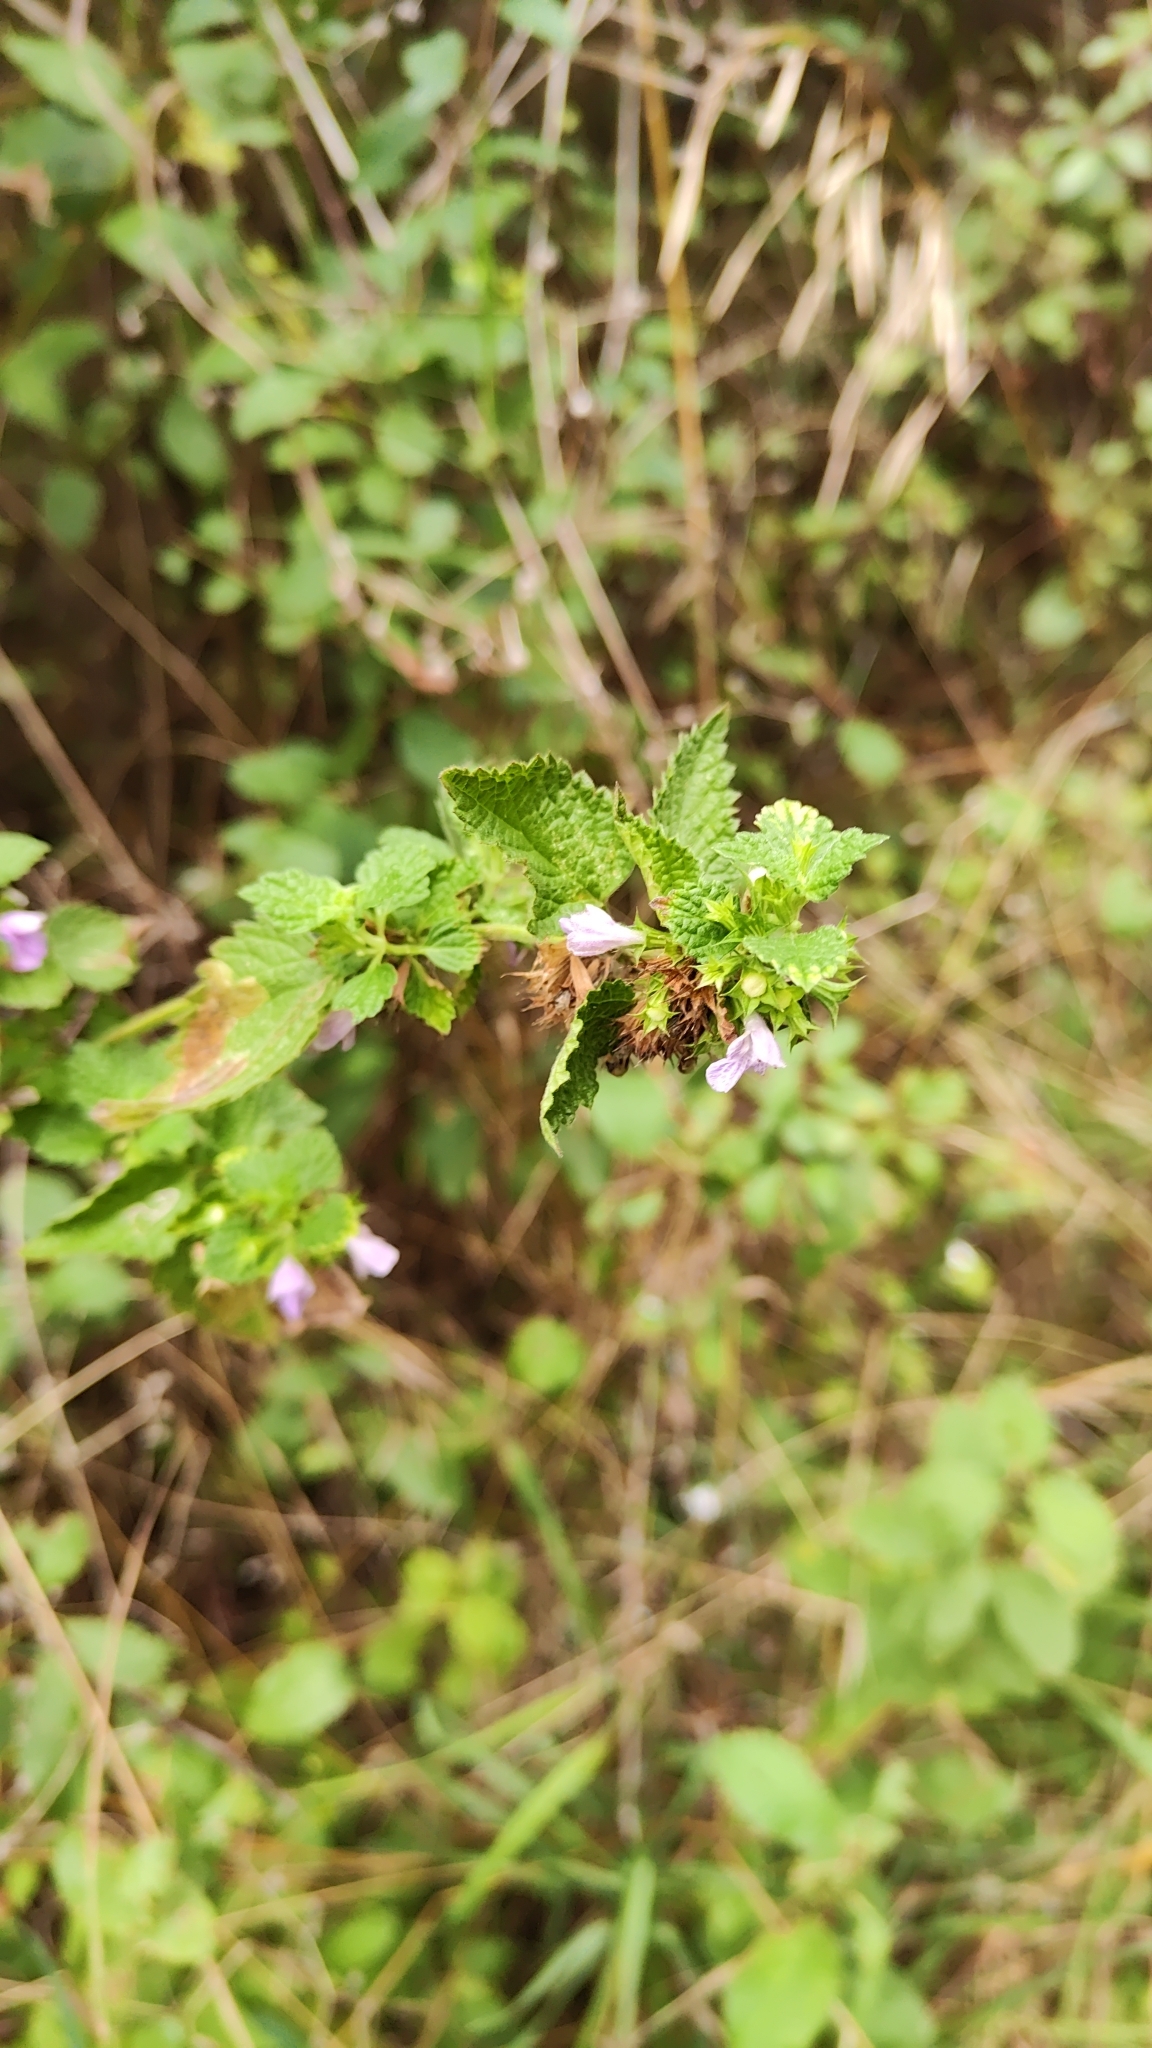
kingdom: Plantae
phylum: Tracheophyta
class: Magnoliopsida
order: Lamiales
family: Lamiaceae
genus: Ballota
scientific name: Ballota nigra
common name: Black horehound
